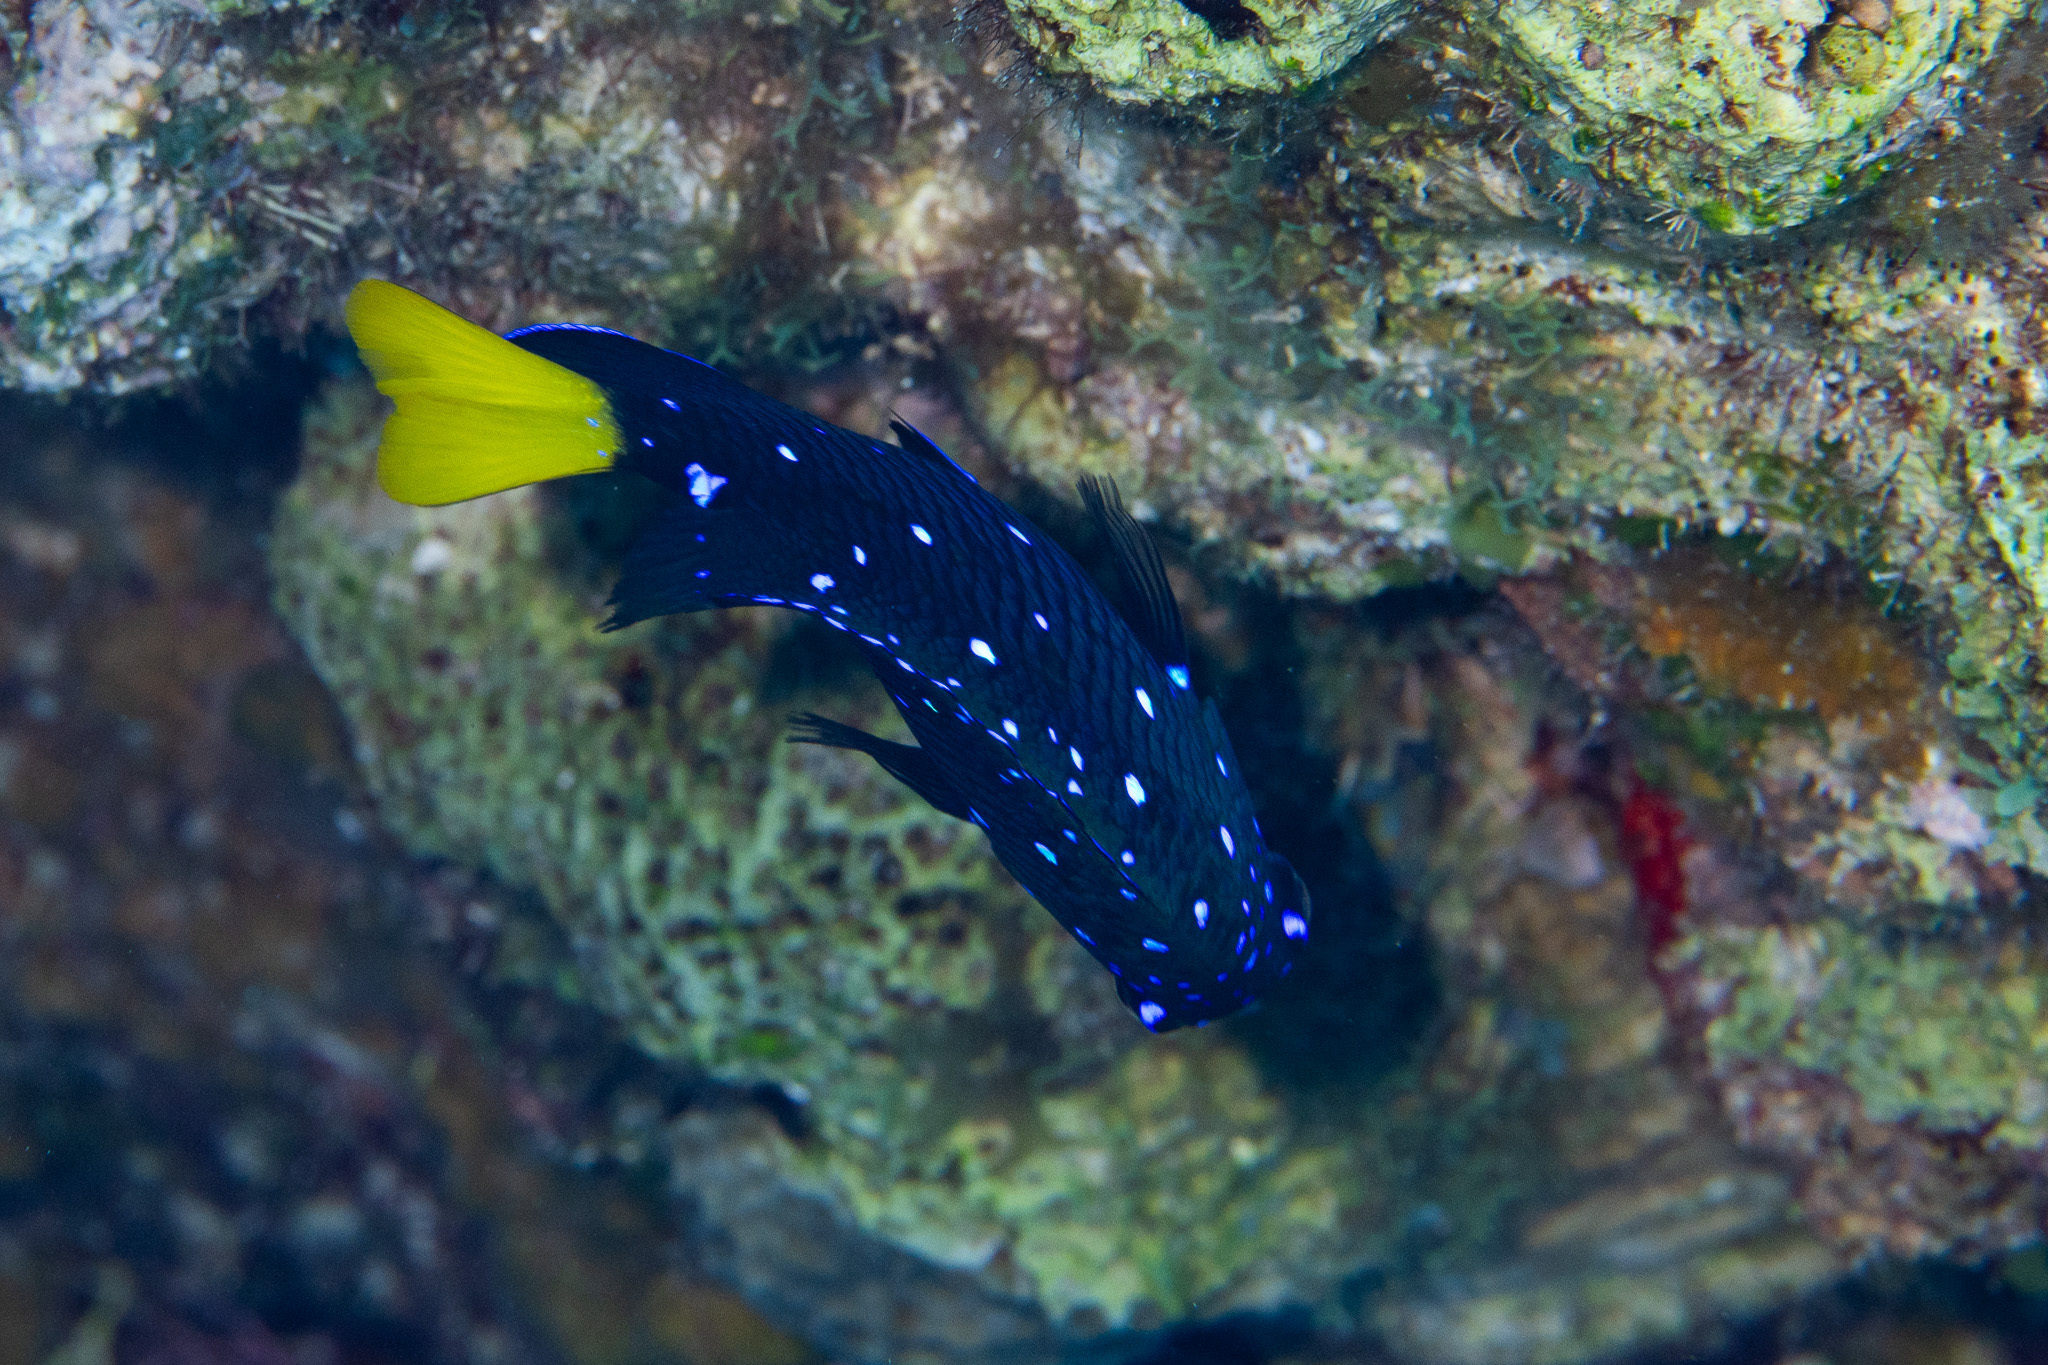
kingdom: Animalia
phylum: Chordata
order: Perciformes
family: Pomacentridae
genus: Microspathodon
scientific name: Microspathodon chrysurus
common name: Yellowtail damselfish
